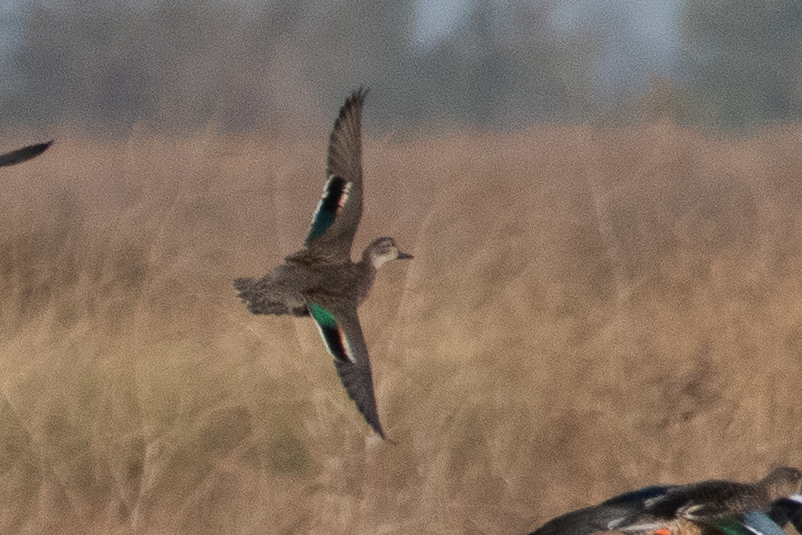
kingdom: Animalia
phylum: Chordata
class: Aves
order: Anseriformes
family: Anatidae
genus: Anas
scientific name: Anas crecca
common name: Eurasian teal
